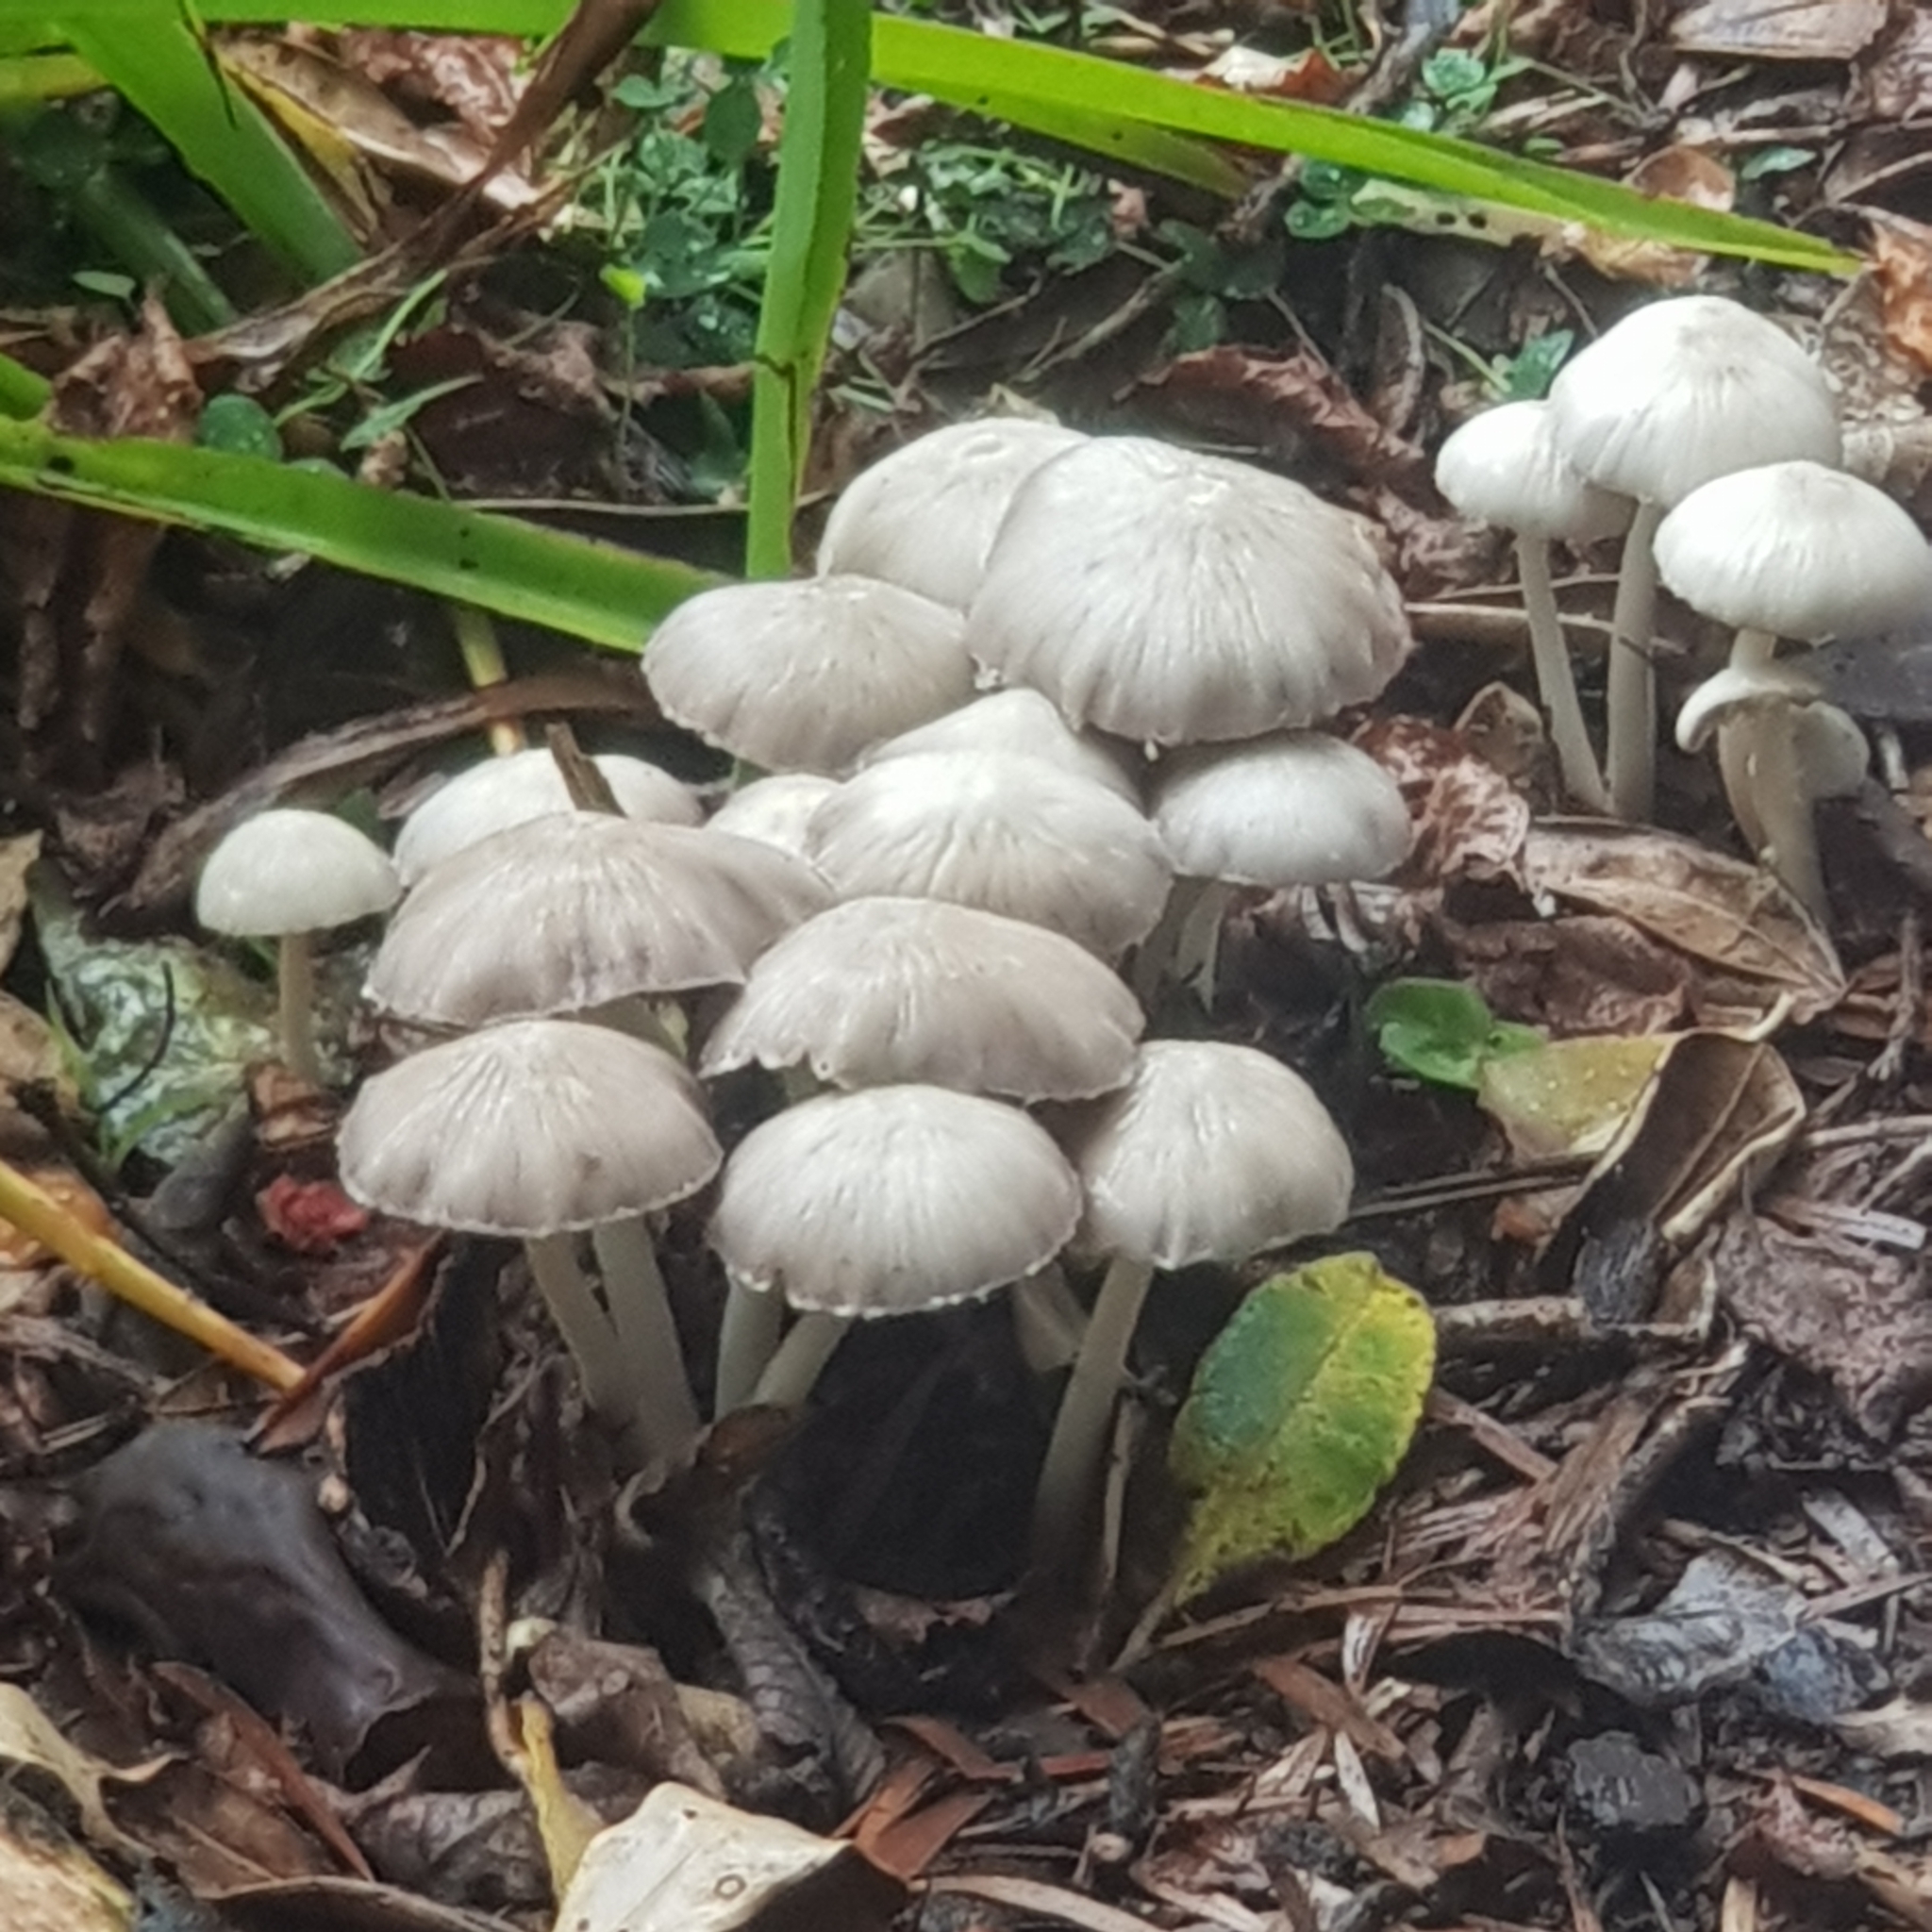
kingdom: Fungi
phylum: Basidiomycota
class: Agaricomycetes
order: Agaricales
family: Psathyrellaceae
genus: Candolleomyces
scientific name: Candolleomyces candolleanus
